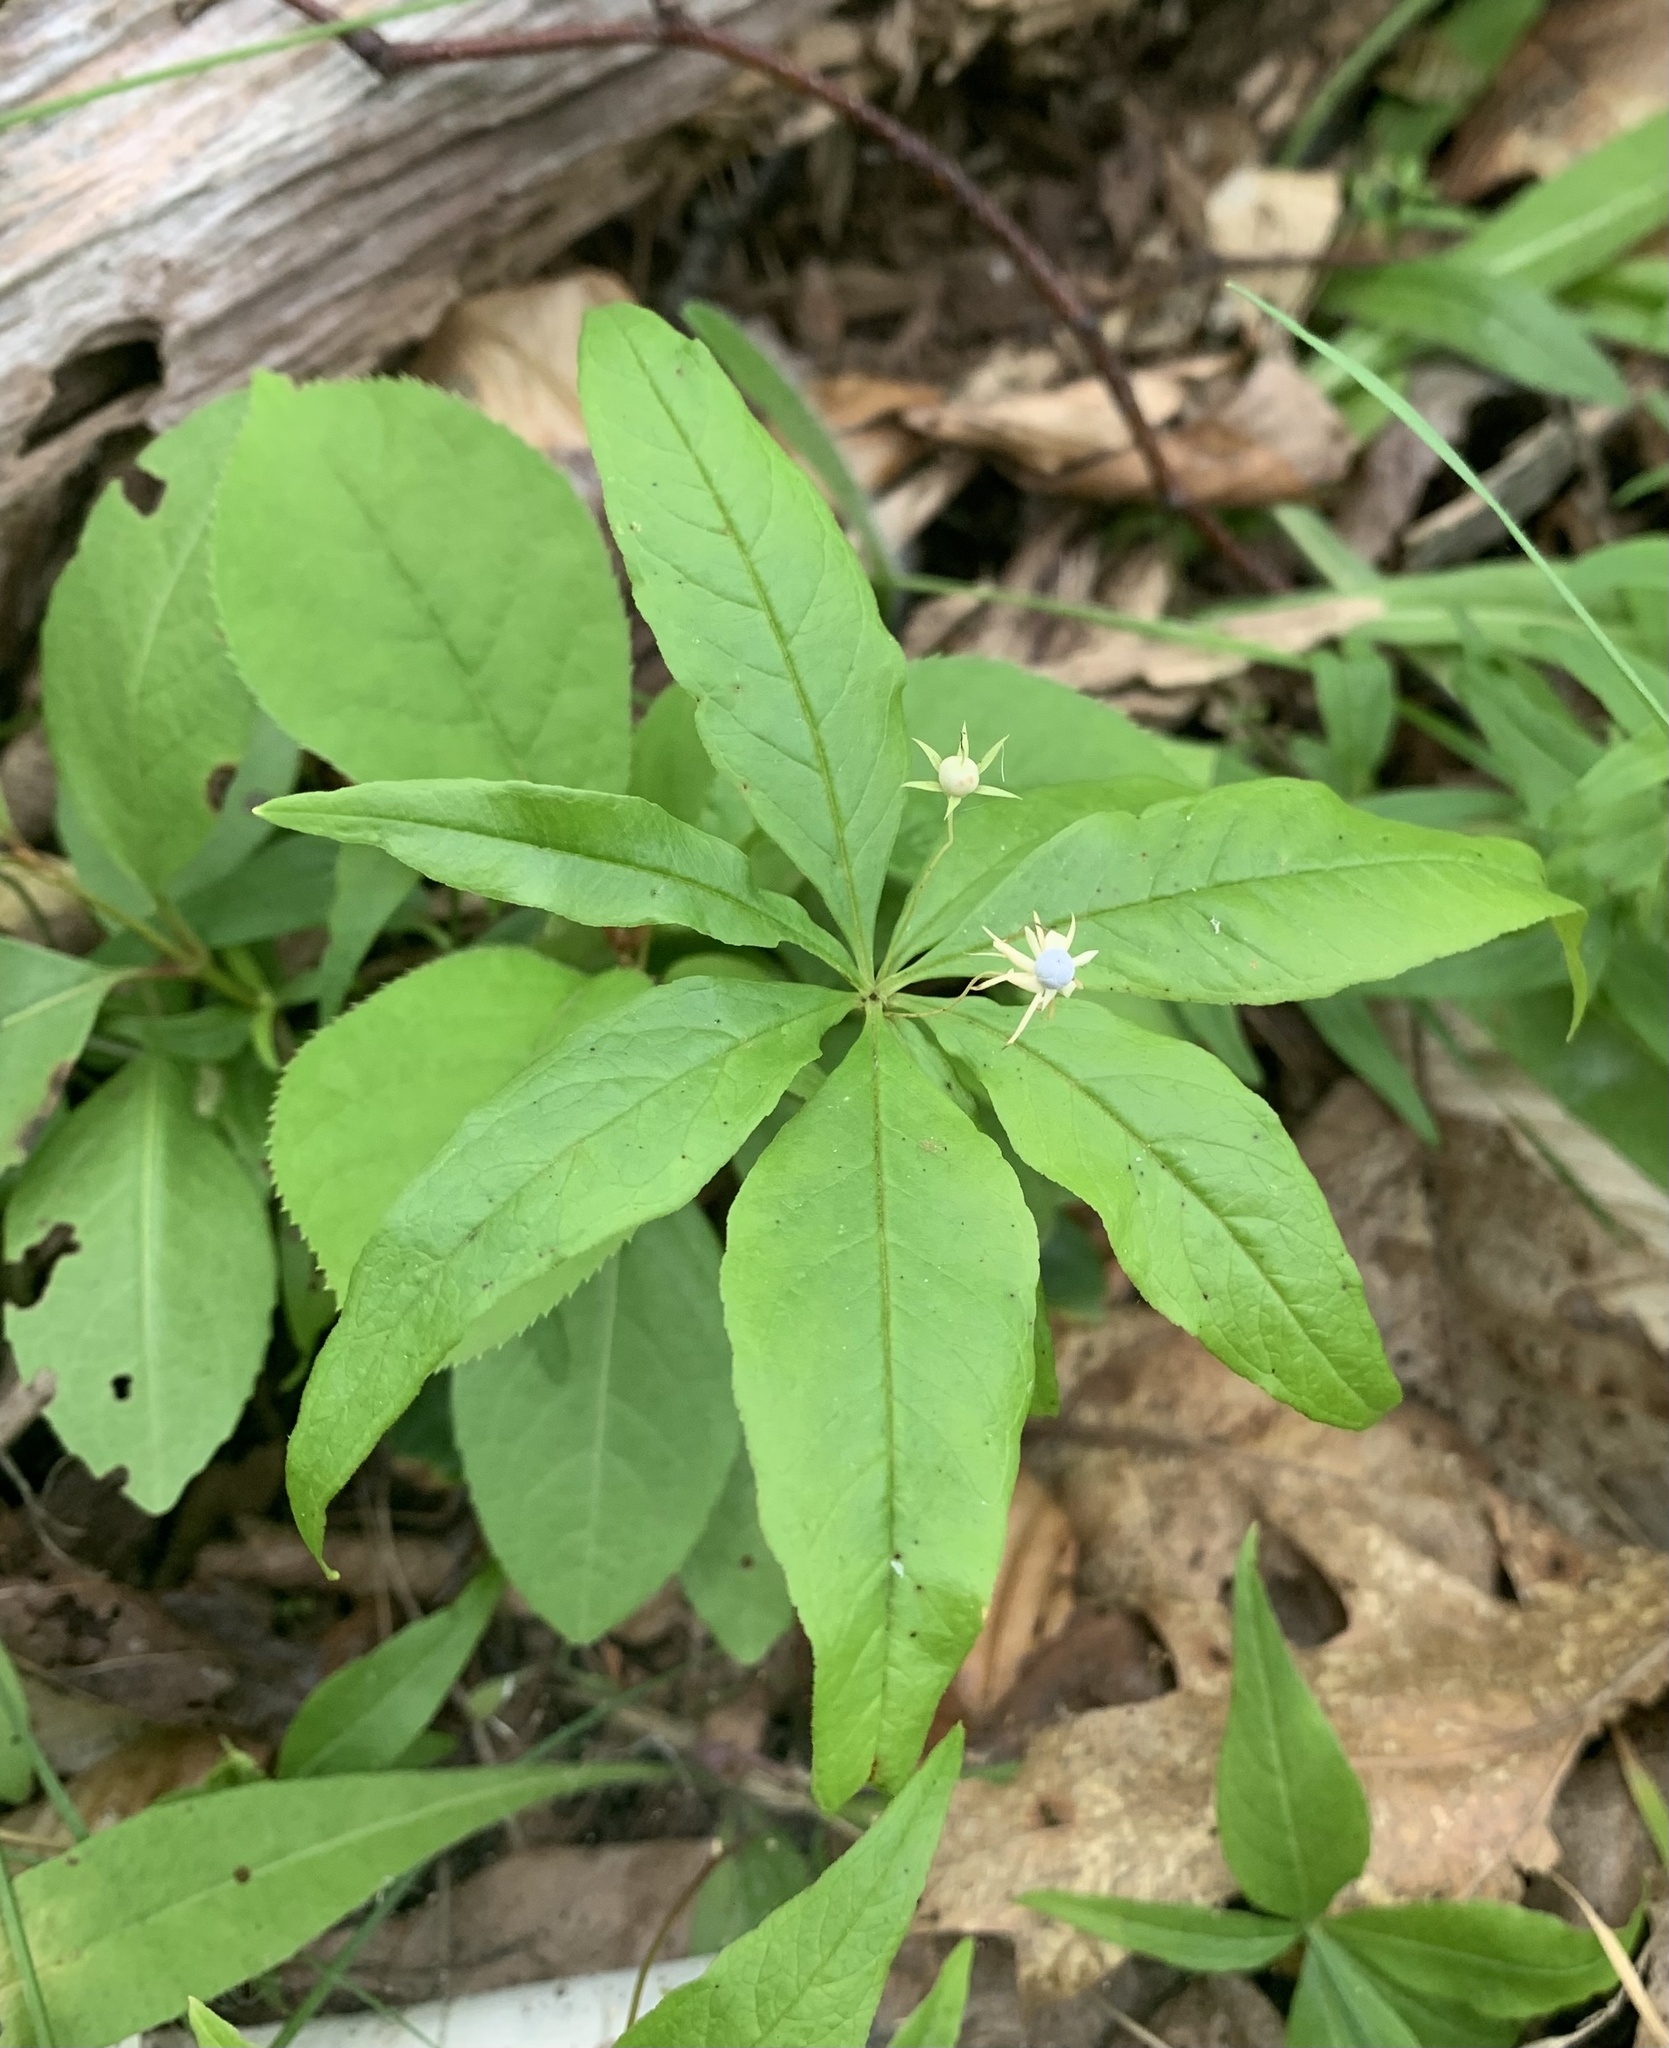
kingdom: Plantae
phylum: Tracheophyta
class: Magnoliopsida
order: Ericales
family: Primulaceae
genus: Lysimachia
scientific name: Lysimachia borealis
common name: American starflower
